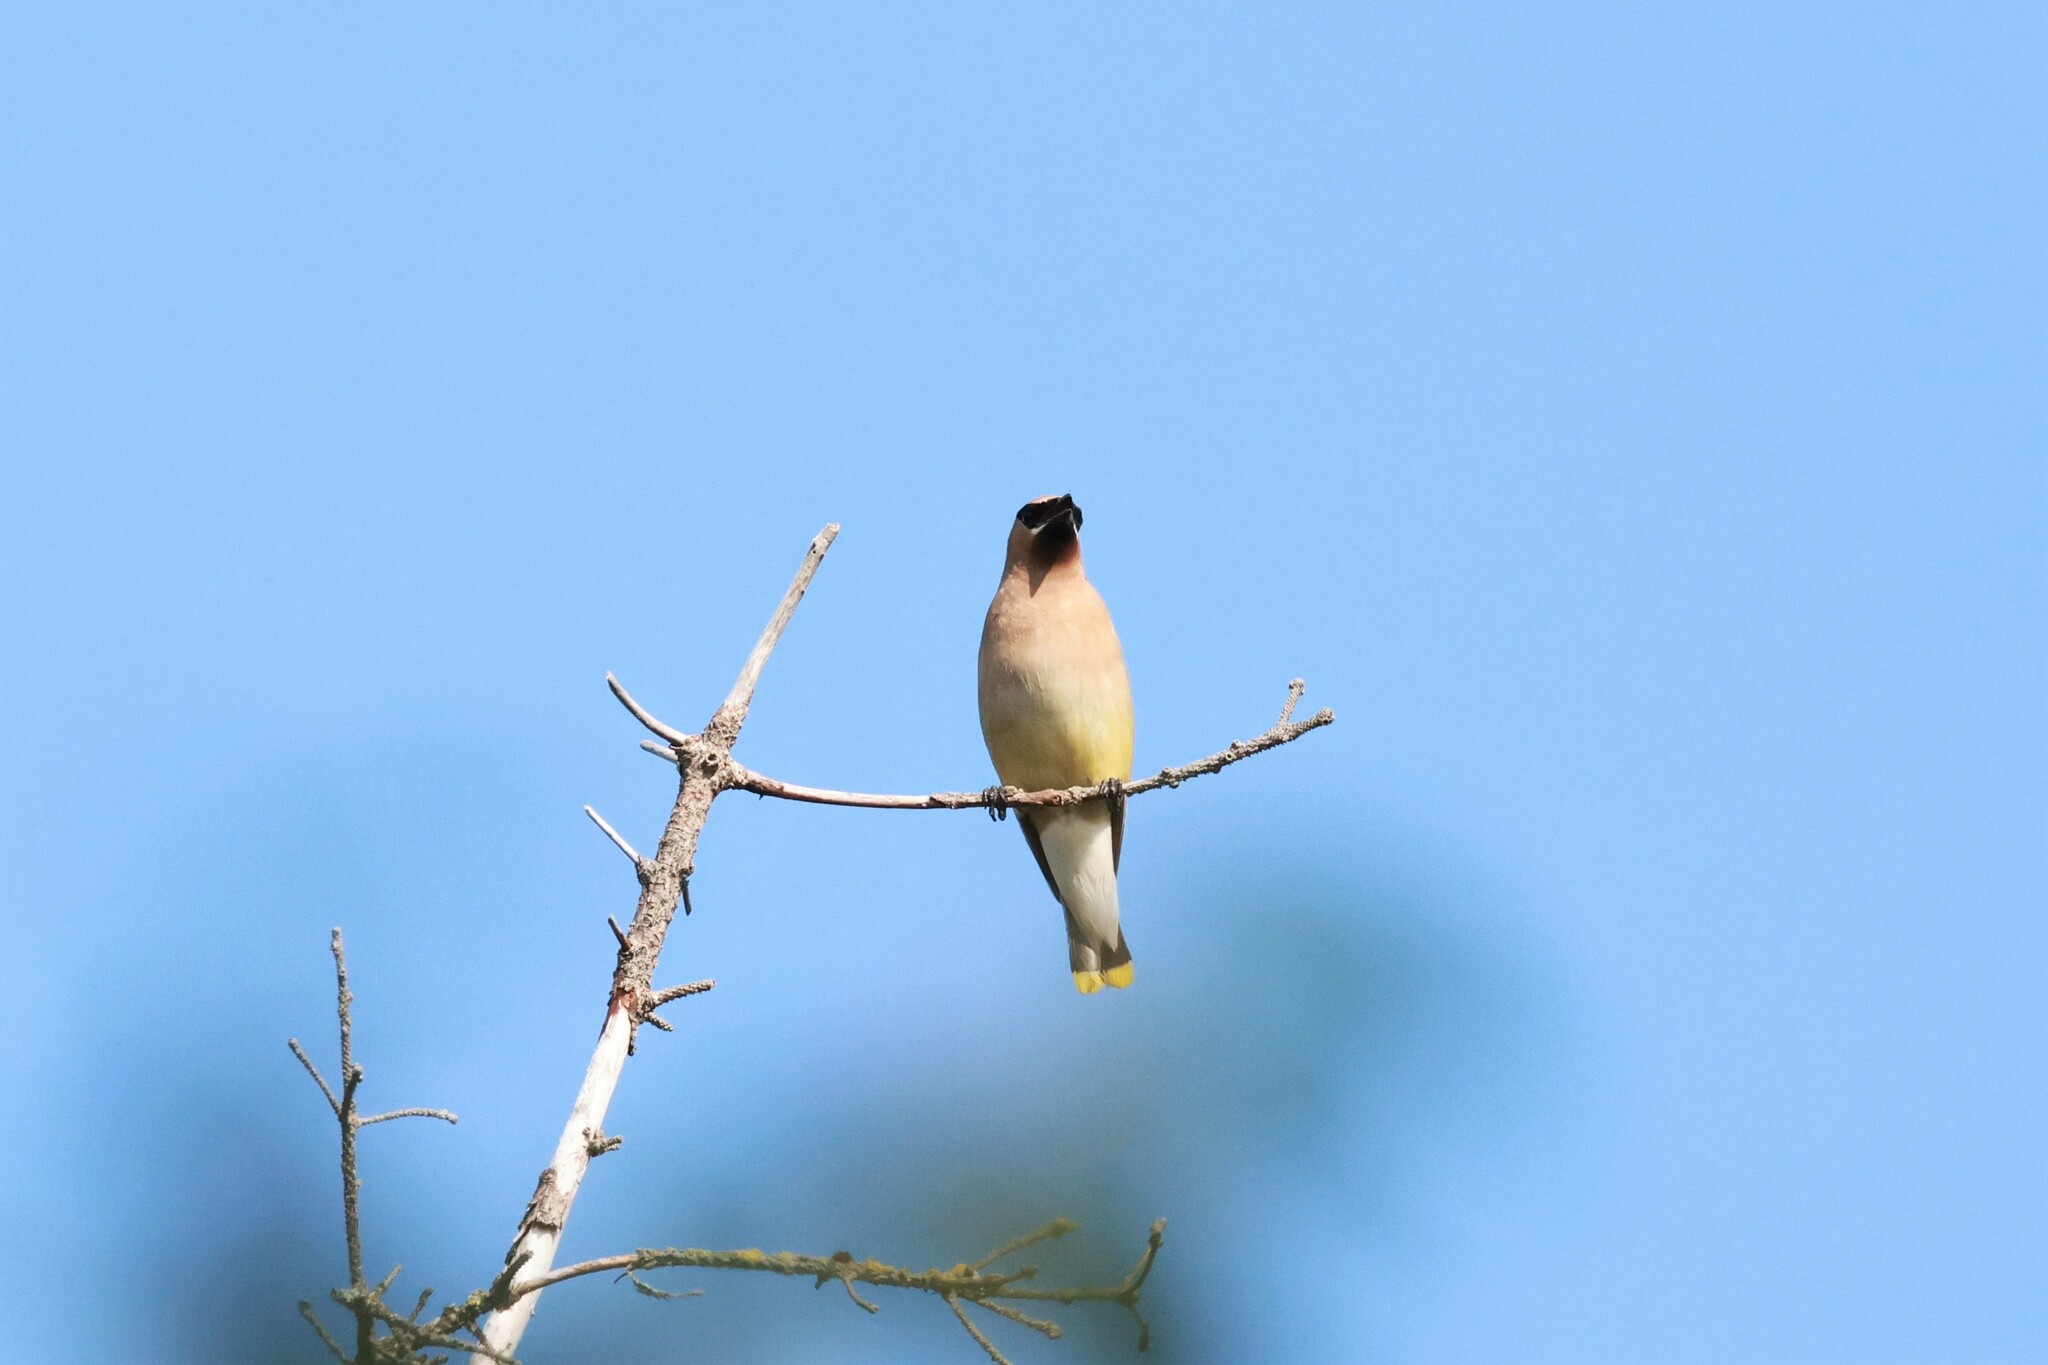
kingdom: Animalia
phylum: Chordata
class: Aves
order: Passeriformes
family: Bombycillidae
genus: Bombycilla
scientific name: Bombycilla cedrorum
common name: Cedar waxwing
